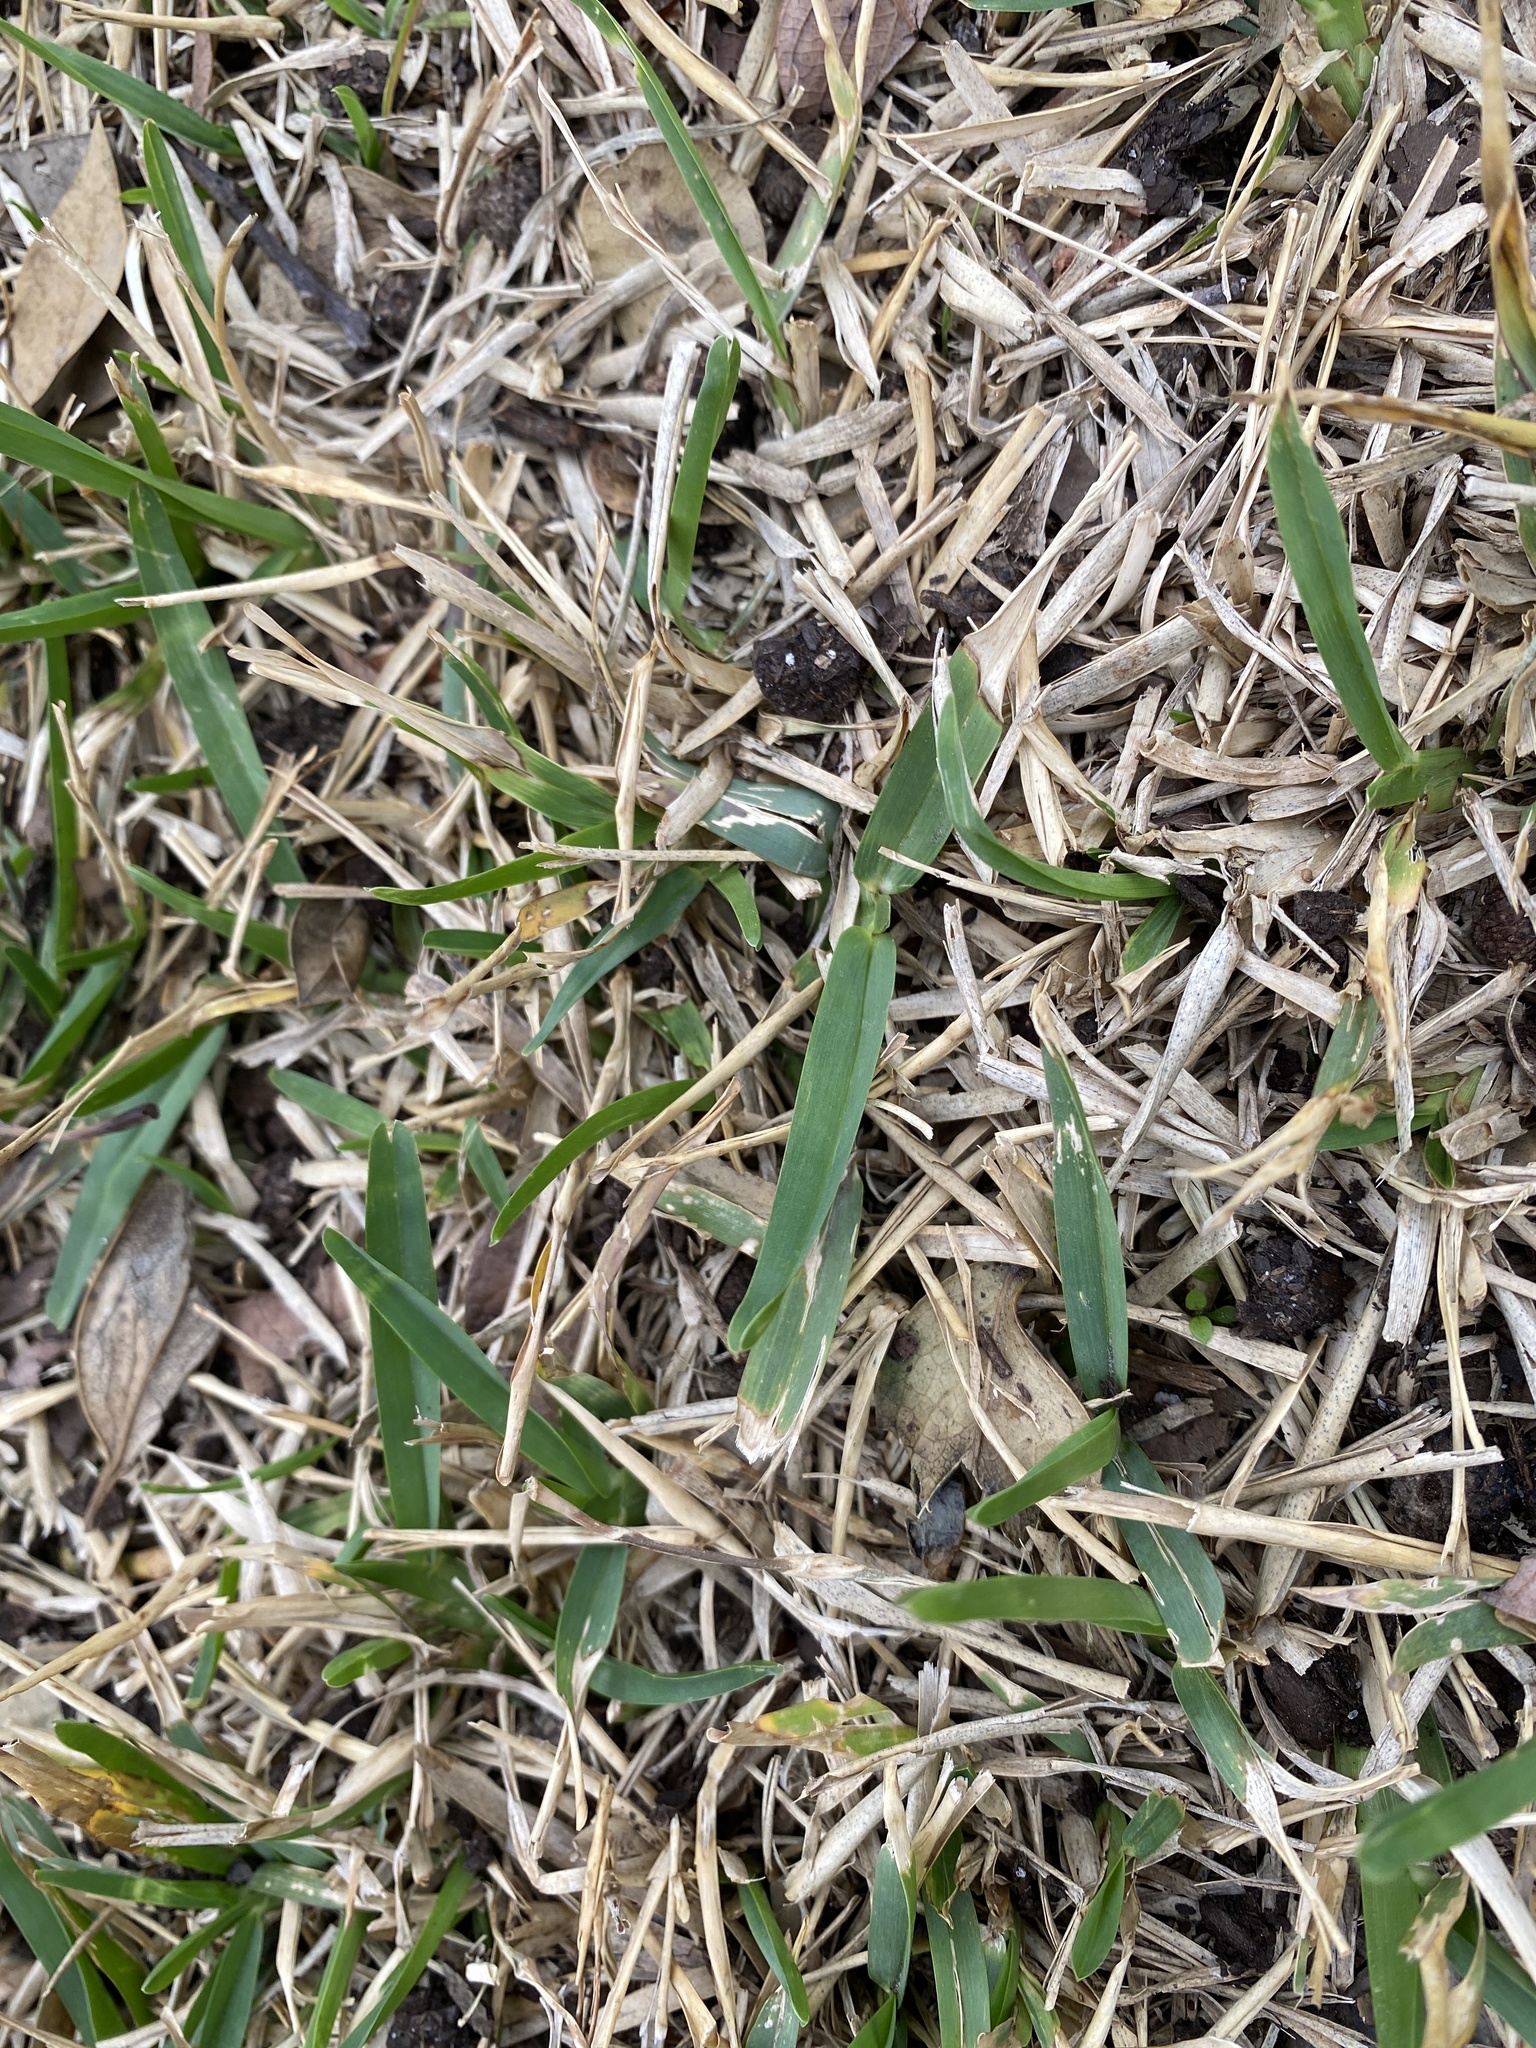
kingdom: Plantae
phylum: Tracheophyta
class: Liliopsida
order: Poales
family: Poaceae
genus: Stenotaphrum
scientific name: Stenotaphrum secundatum
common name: St. augustine grass
